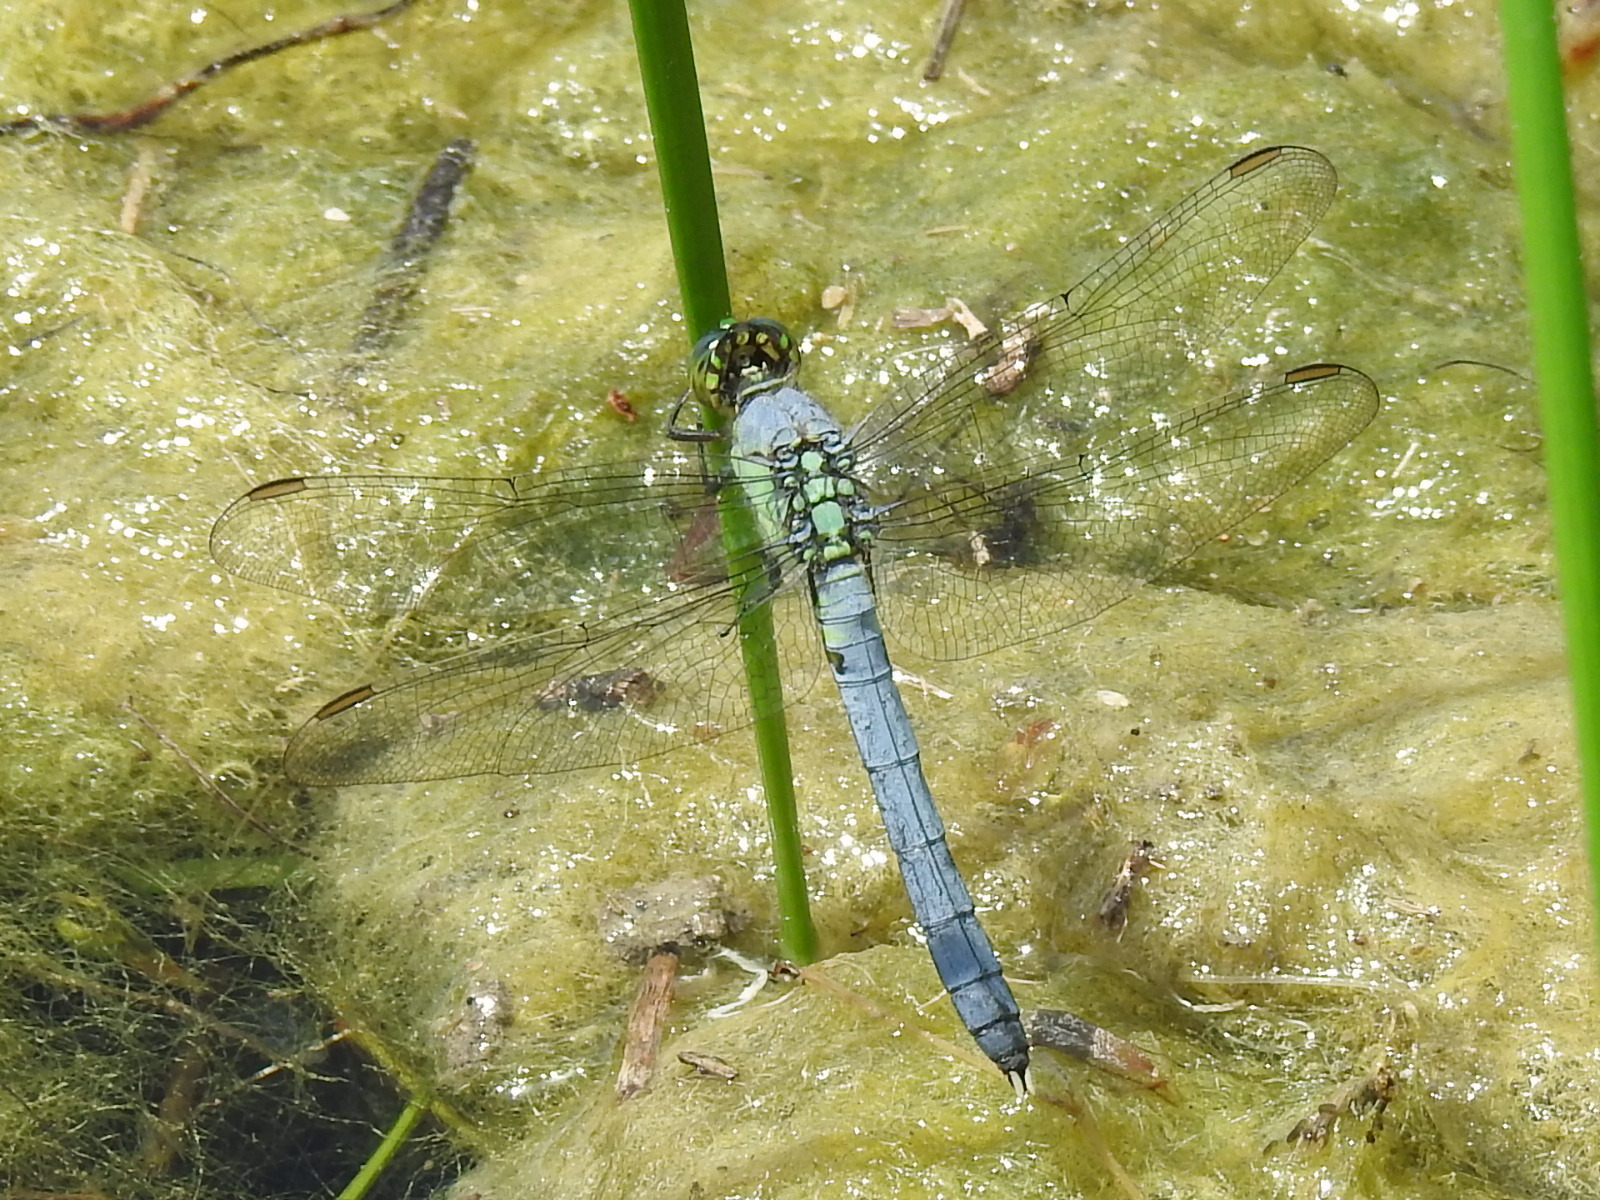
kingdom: Animalia
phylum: Arthropoda
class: Insecta
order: Odonata
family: Libellulidae
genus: Erythemis
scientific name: Erythemis simplicicollis
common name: Eastern pondhawk
